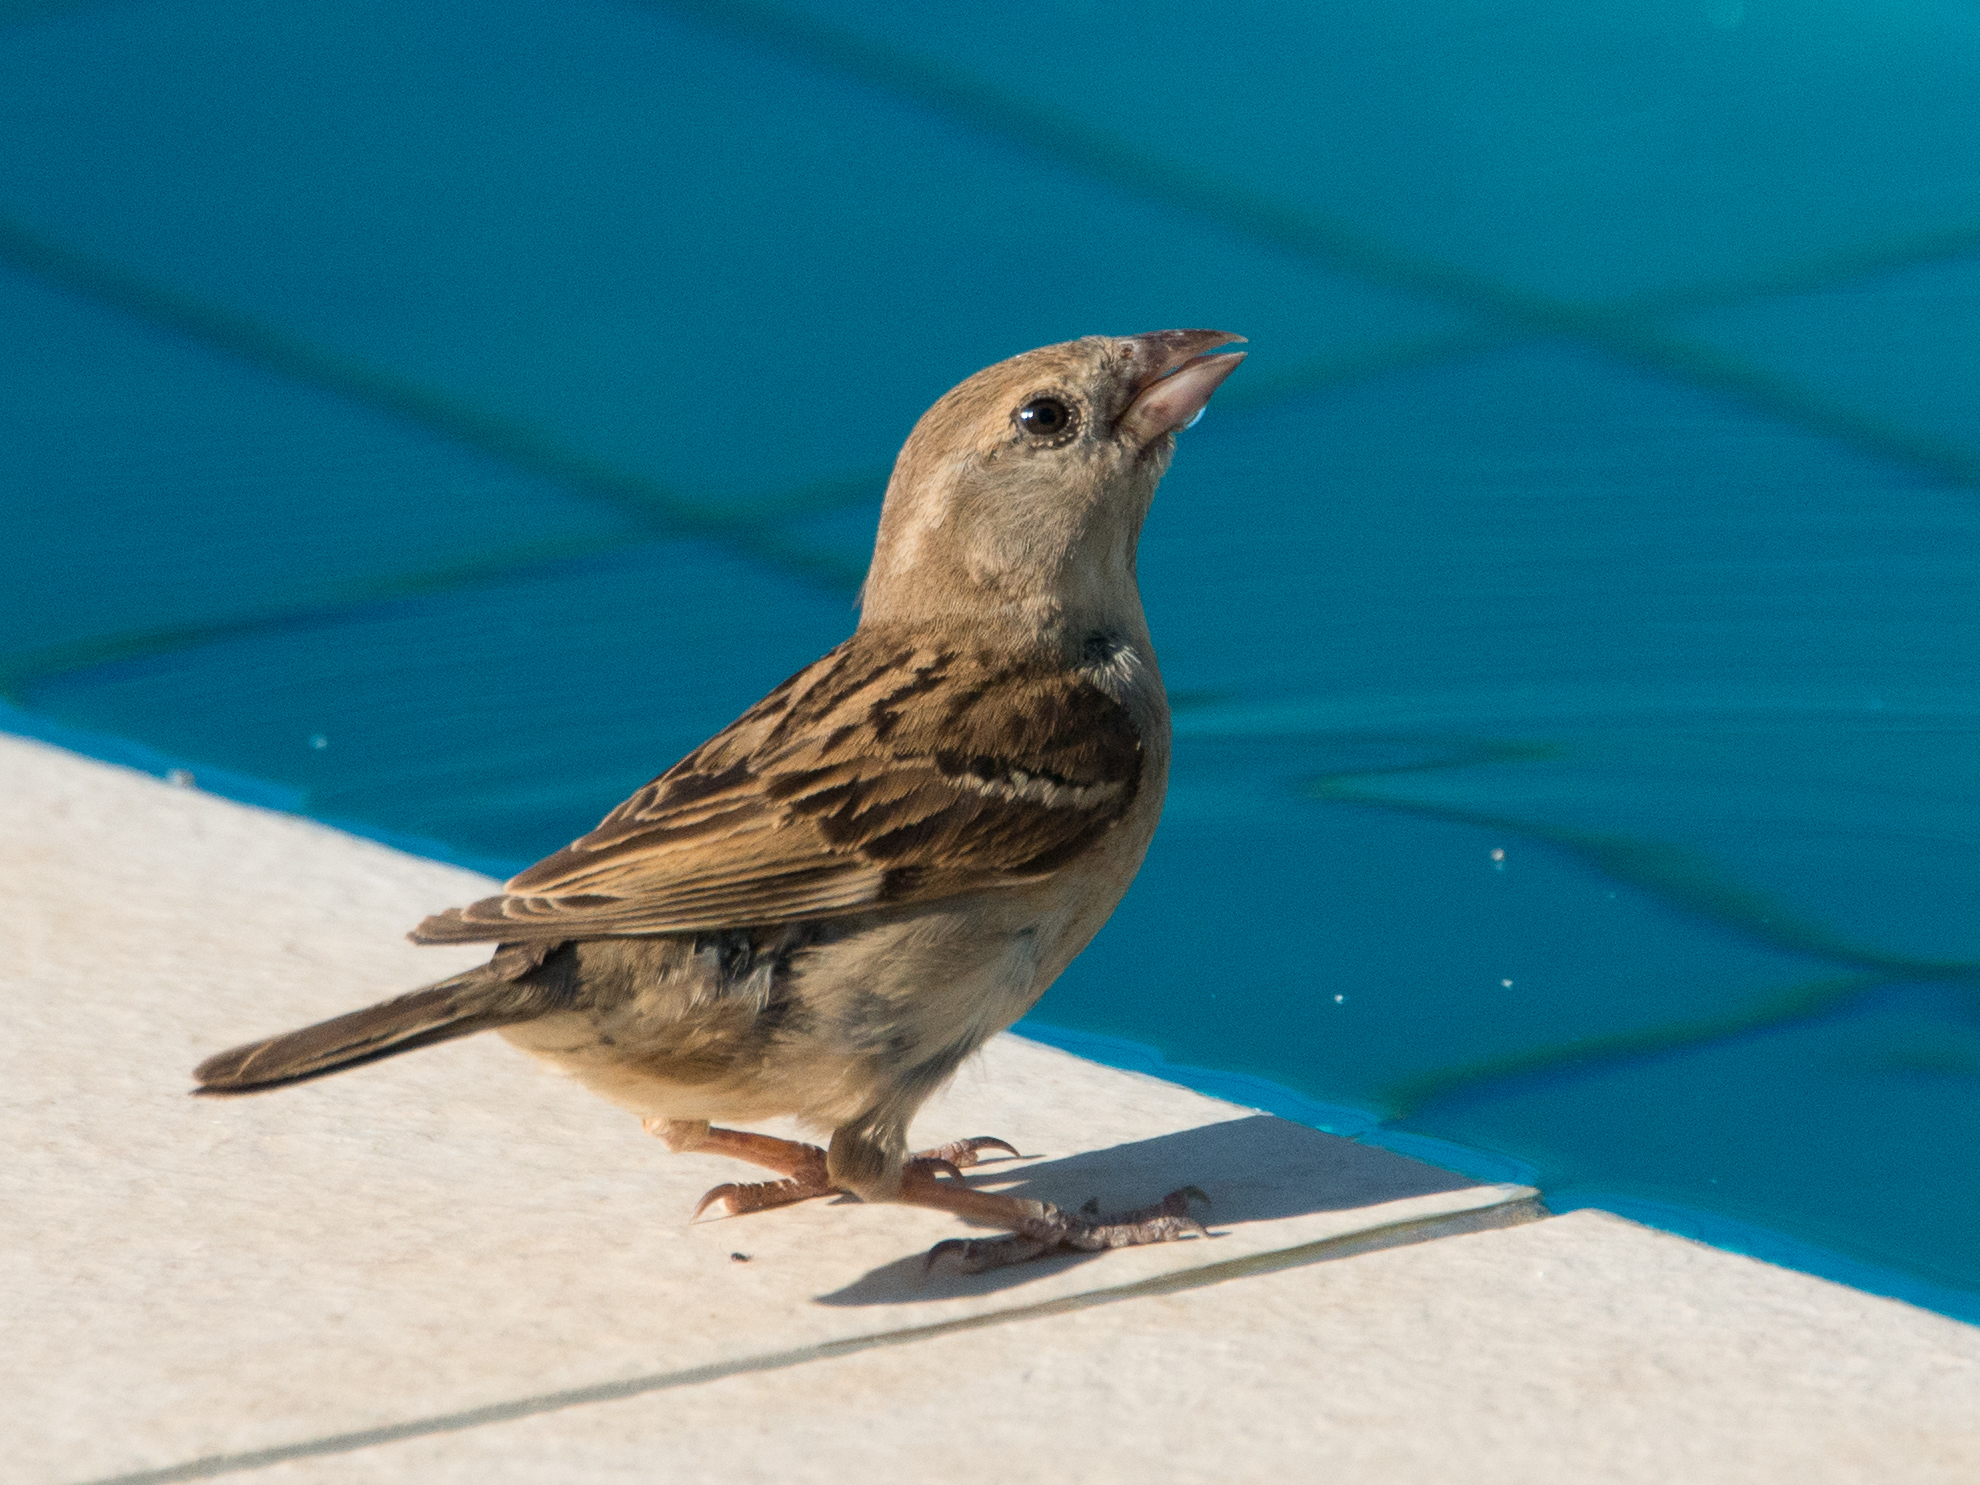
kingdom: Animalia
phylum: Chordata
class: Aves
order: Passeriformes
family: Passeridae
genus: Passer
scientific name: Passer italiae
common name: Italian sparrow
